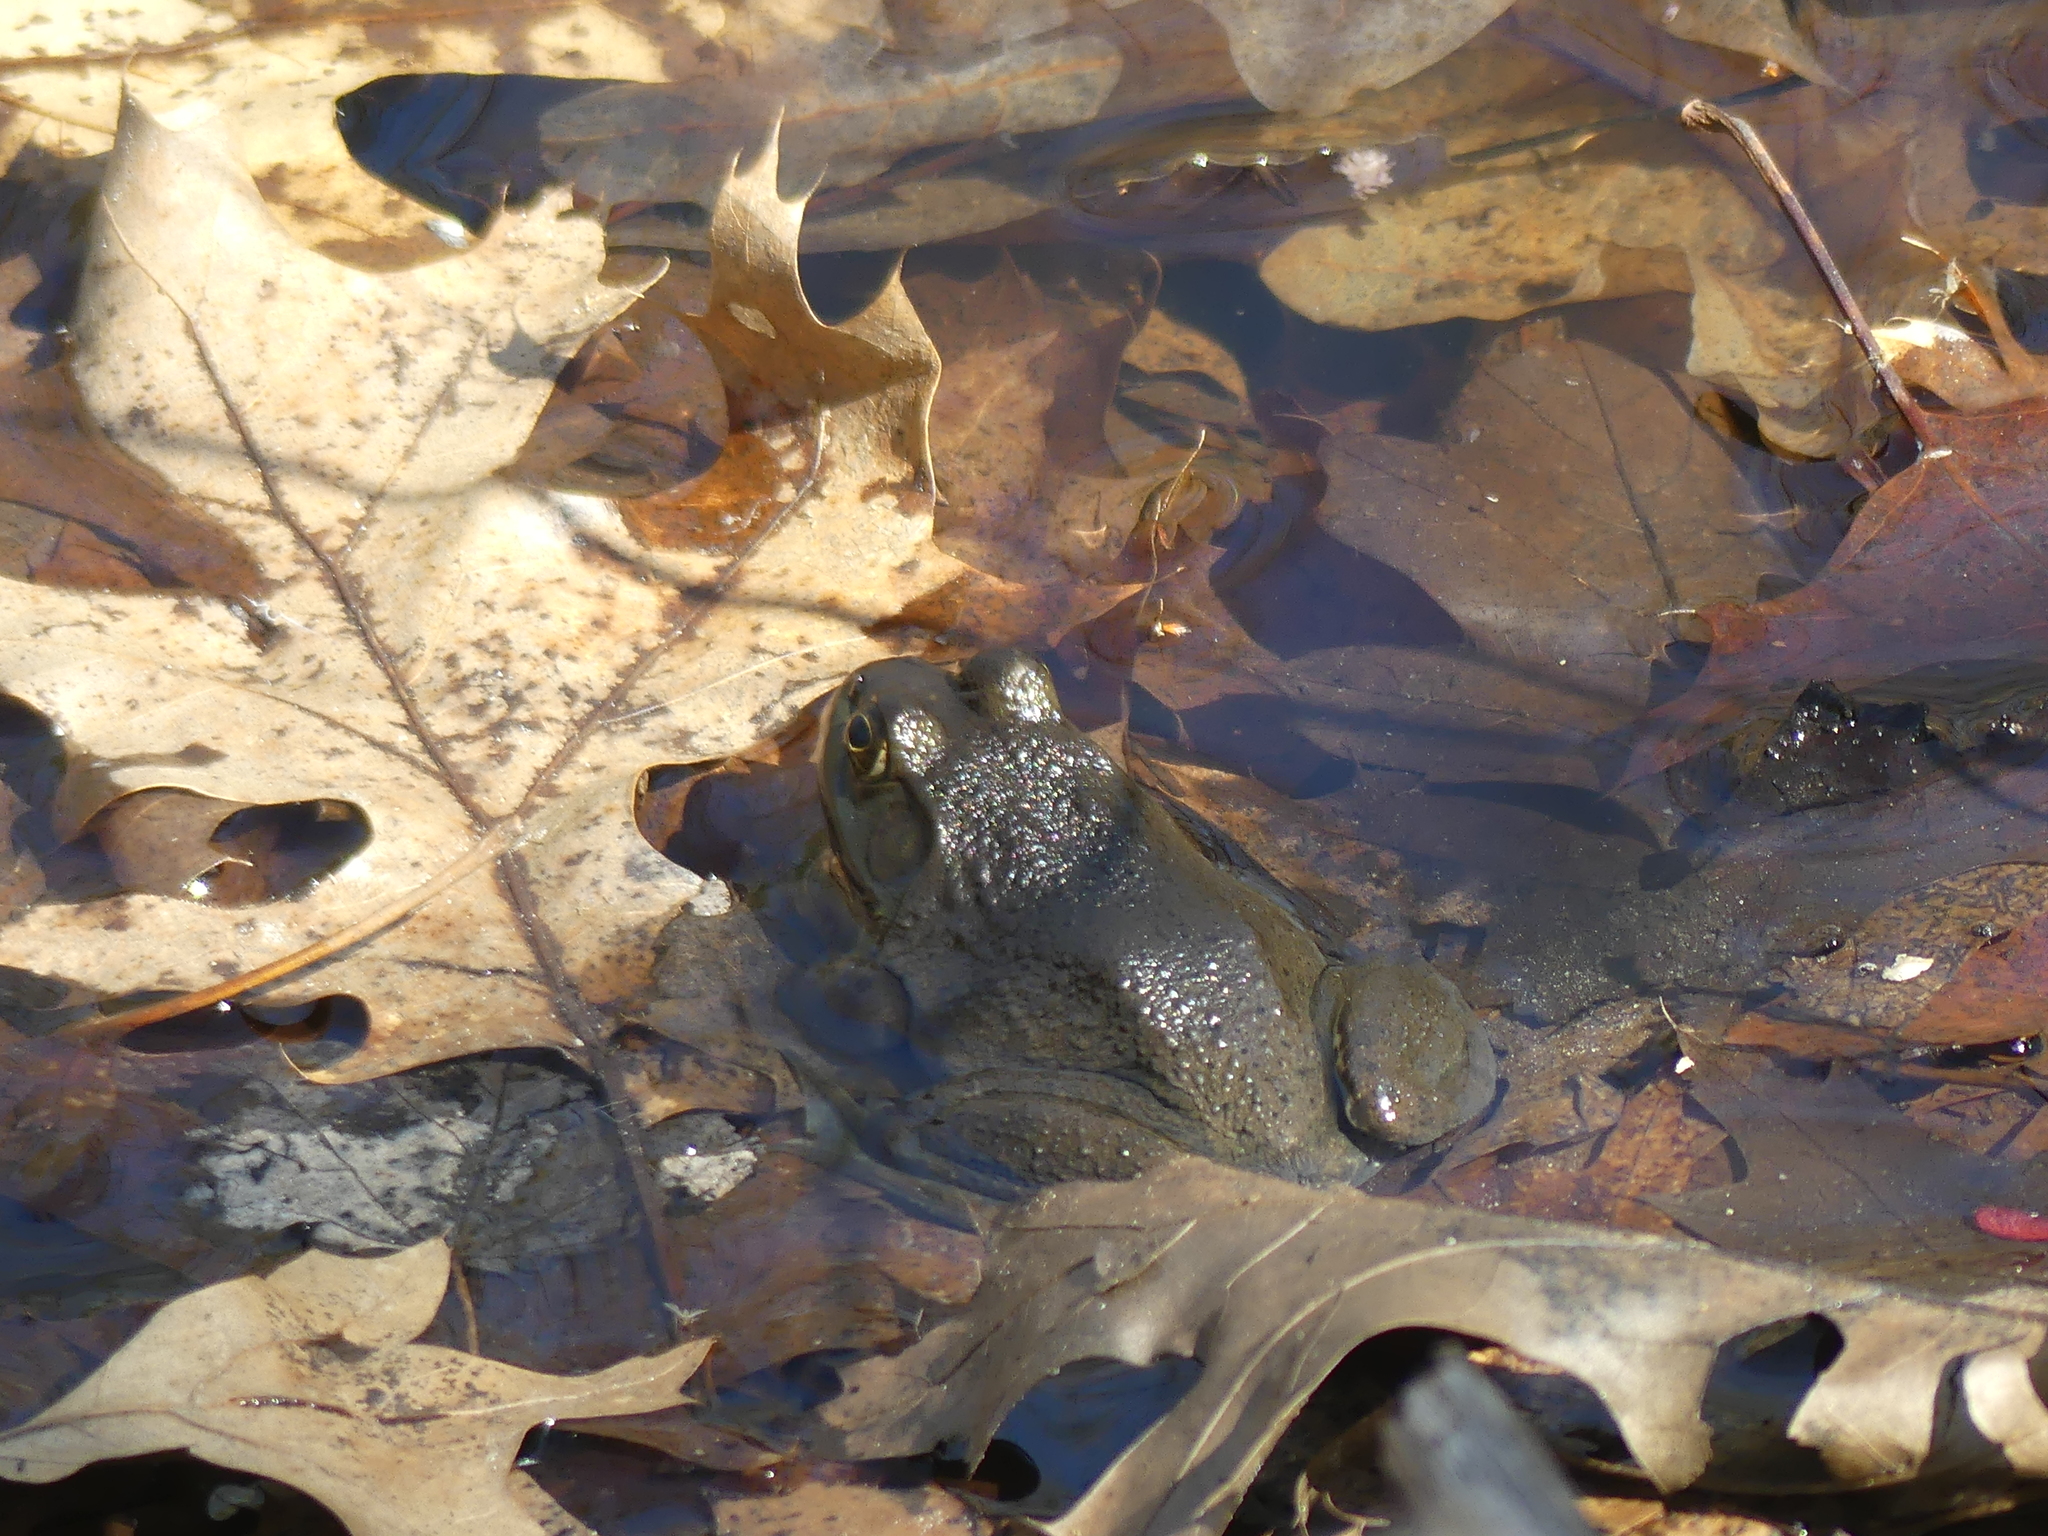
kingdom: Animalia
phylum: Chordata
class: Amphibia
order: Anura
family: Ranidae
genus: Lithobates
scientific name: Lithobates catesbeianus
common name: American bullfrog
